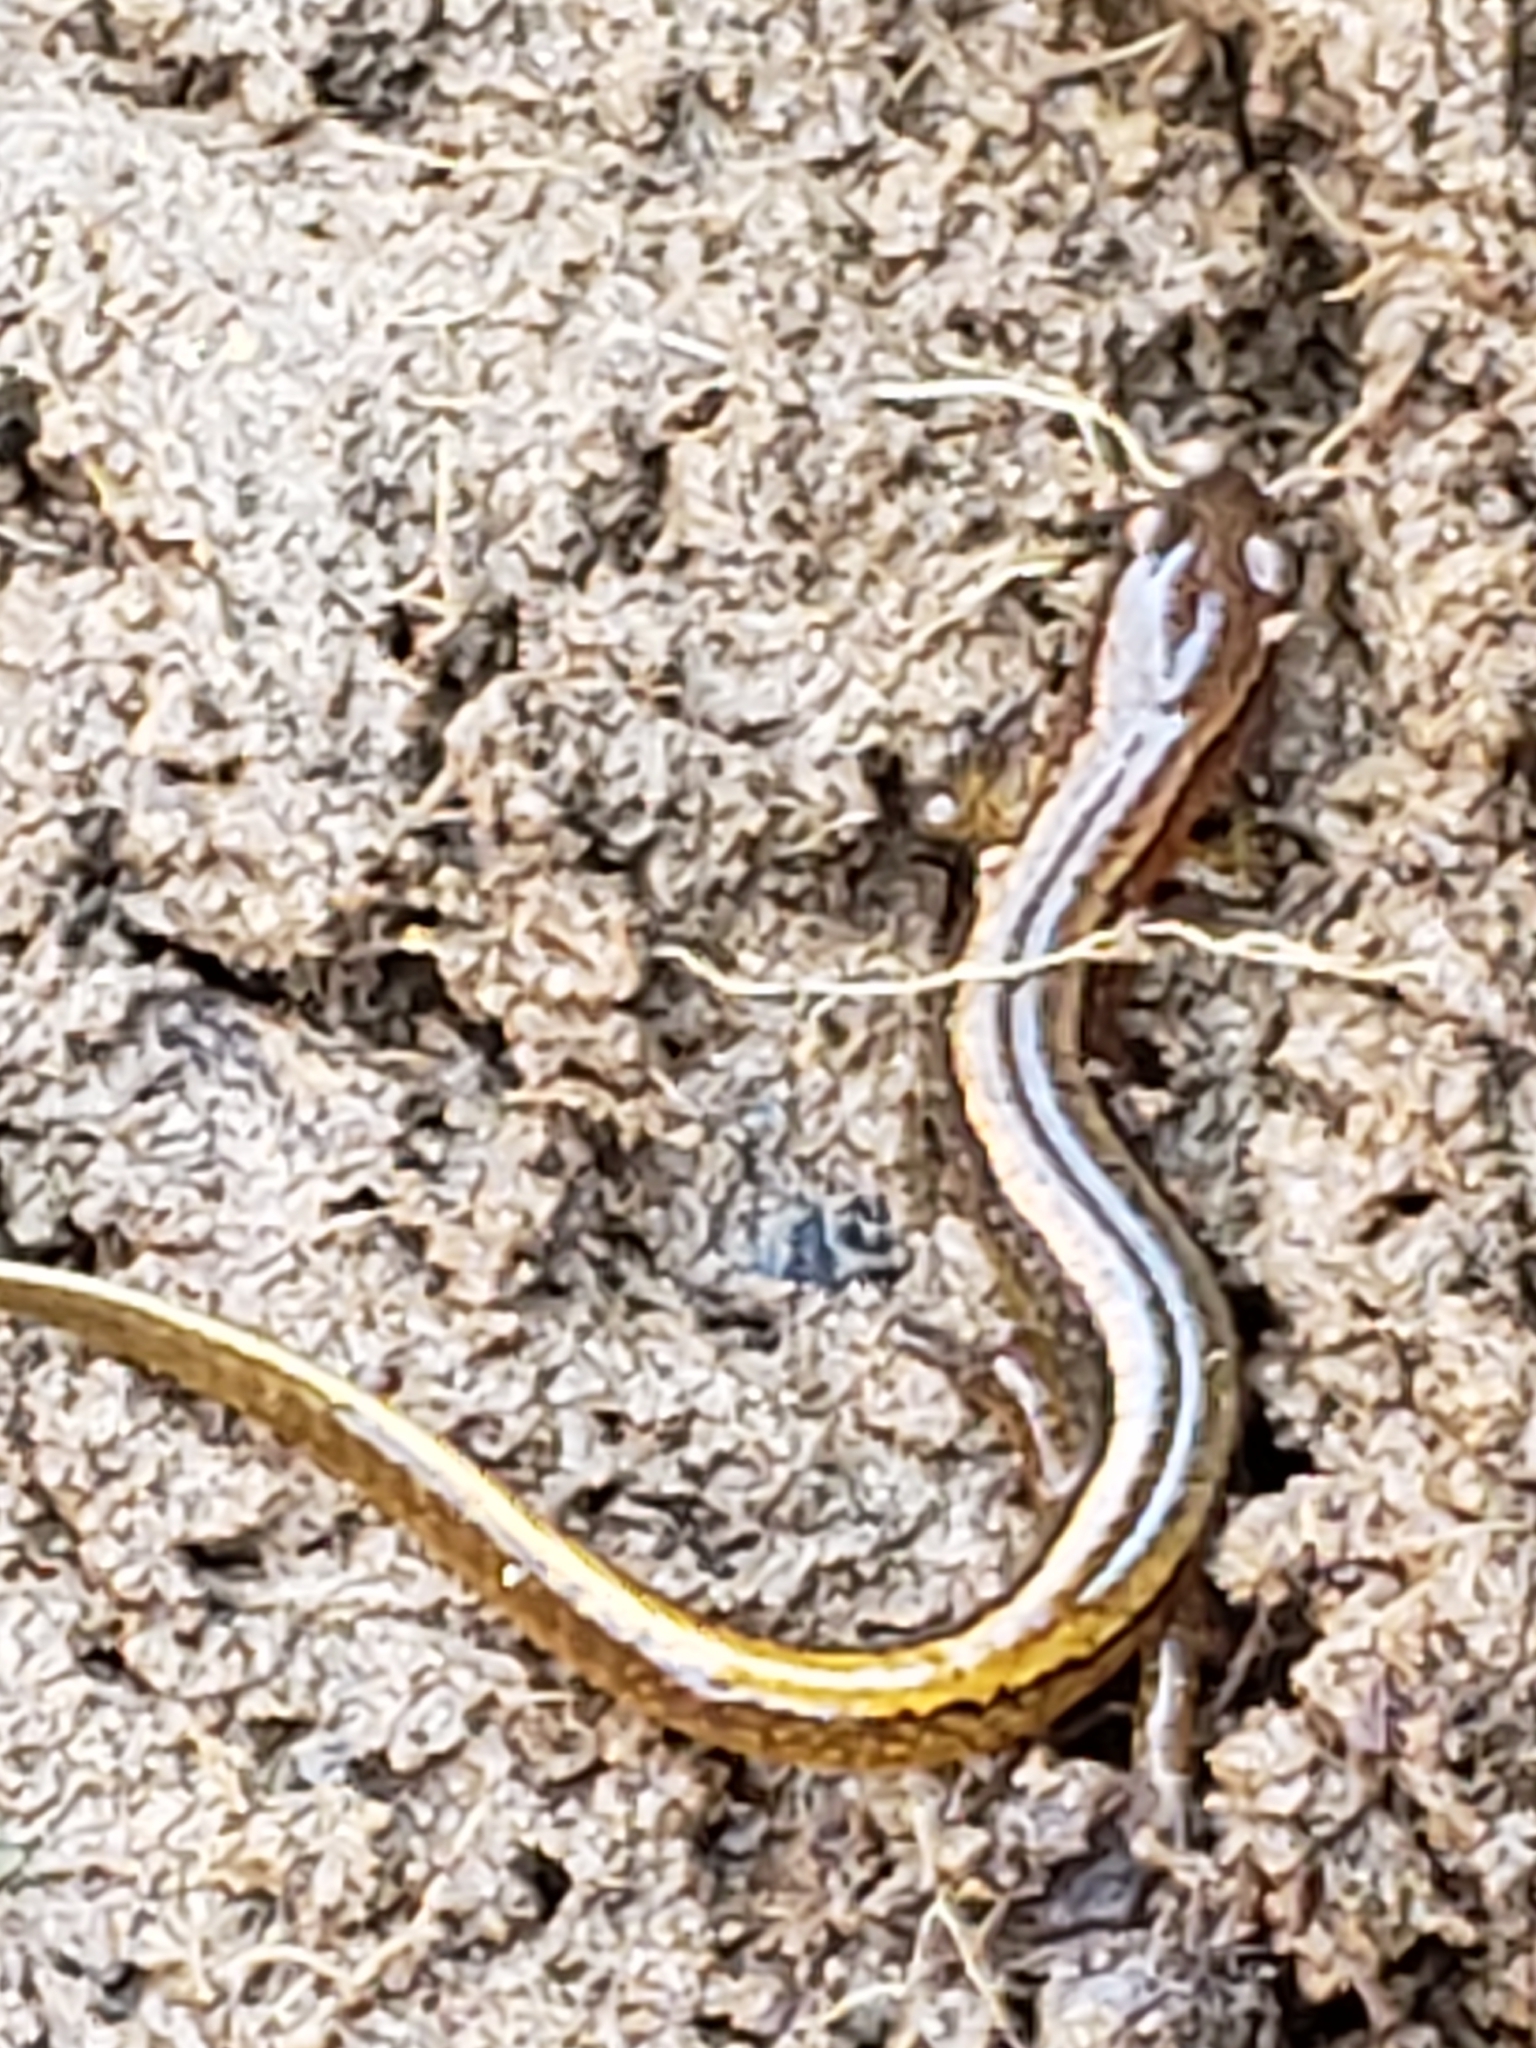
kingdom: Animalia
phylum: Chordata
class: Amphibia
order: Caudata
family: Plethodontidae
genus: Eurycea
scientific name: Eurycea bislineata
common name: Northern two-lined salamander
